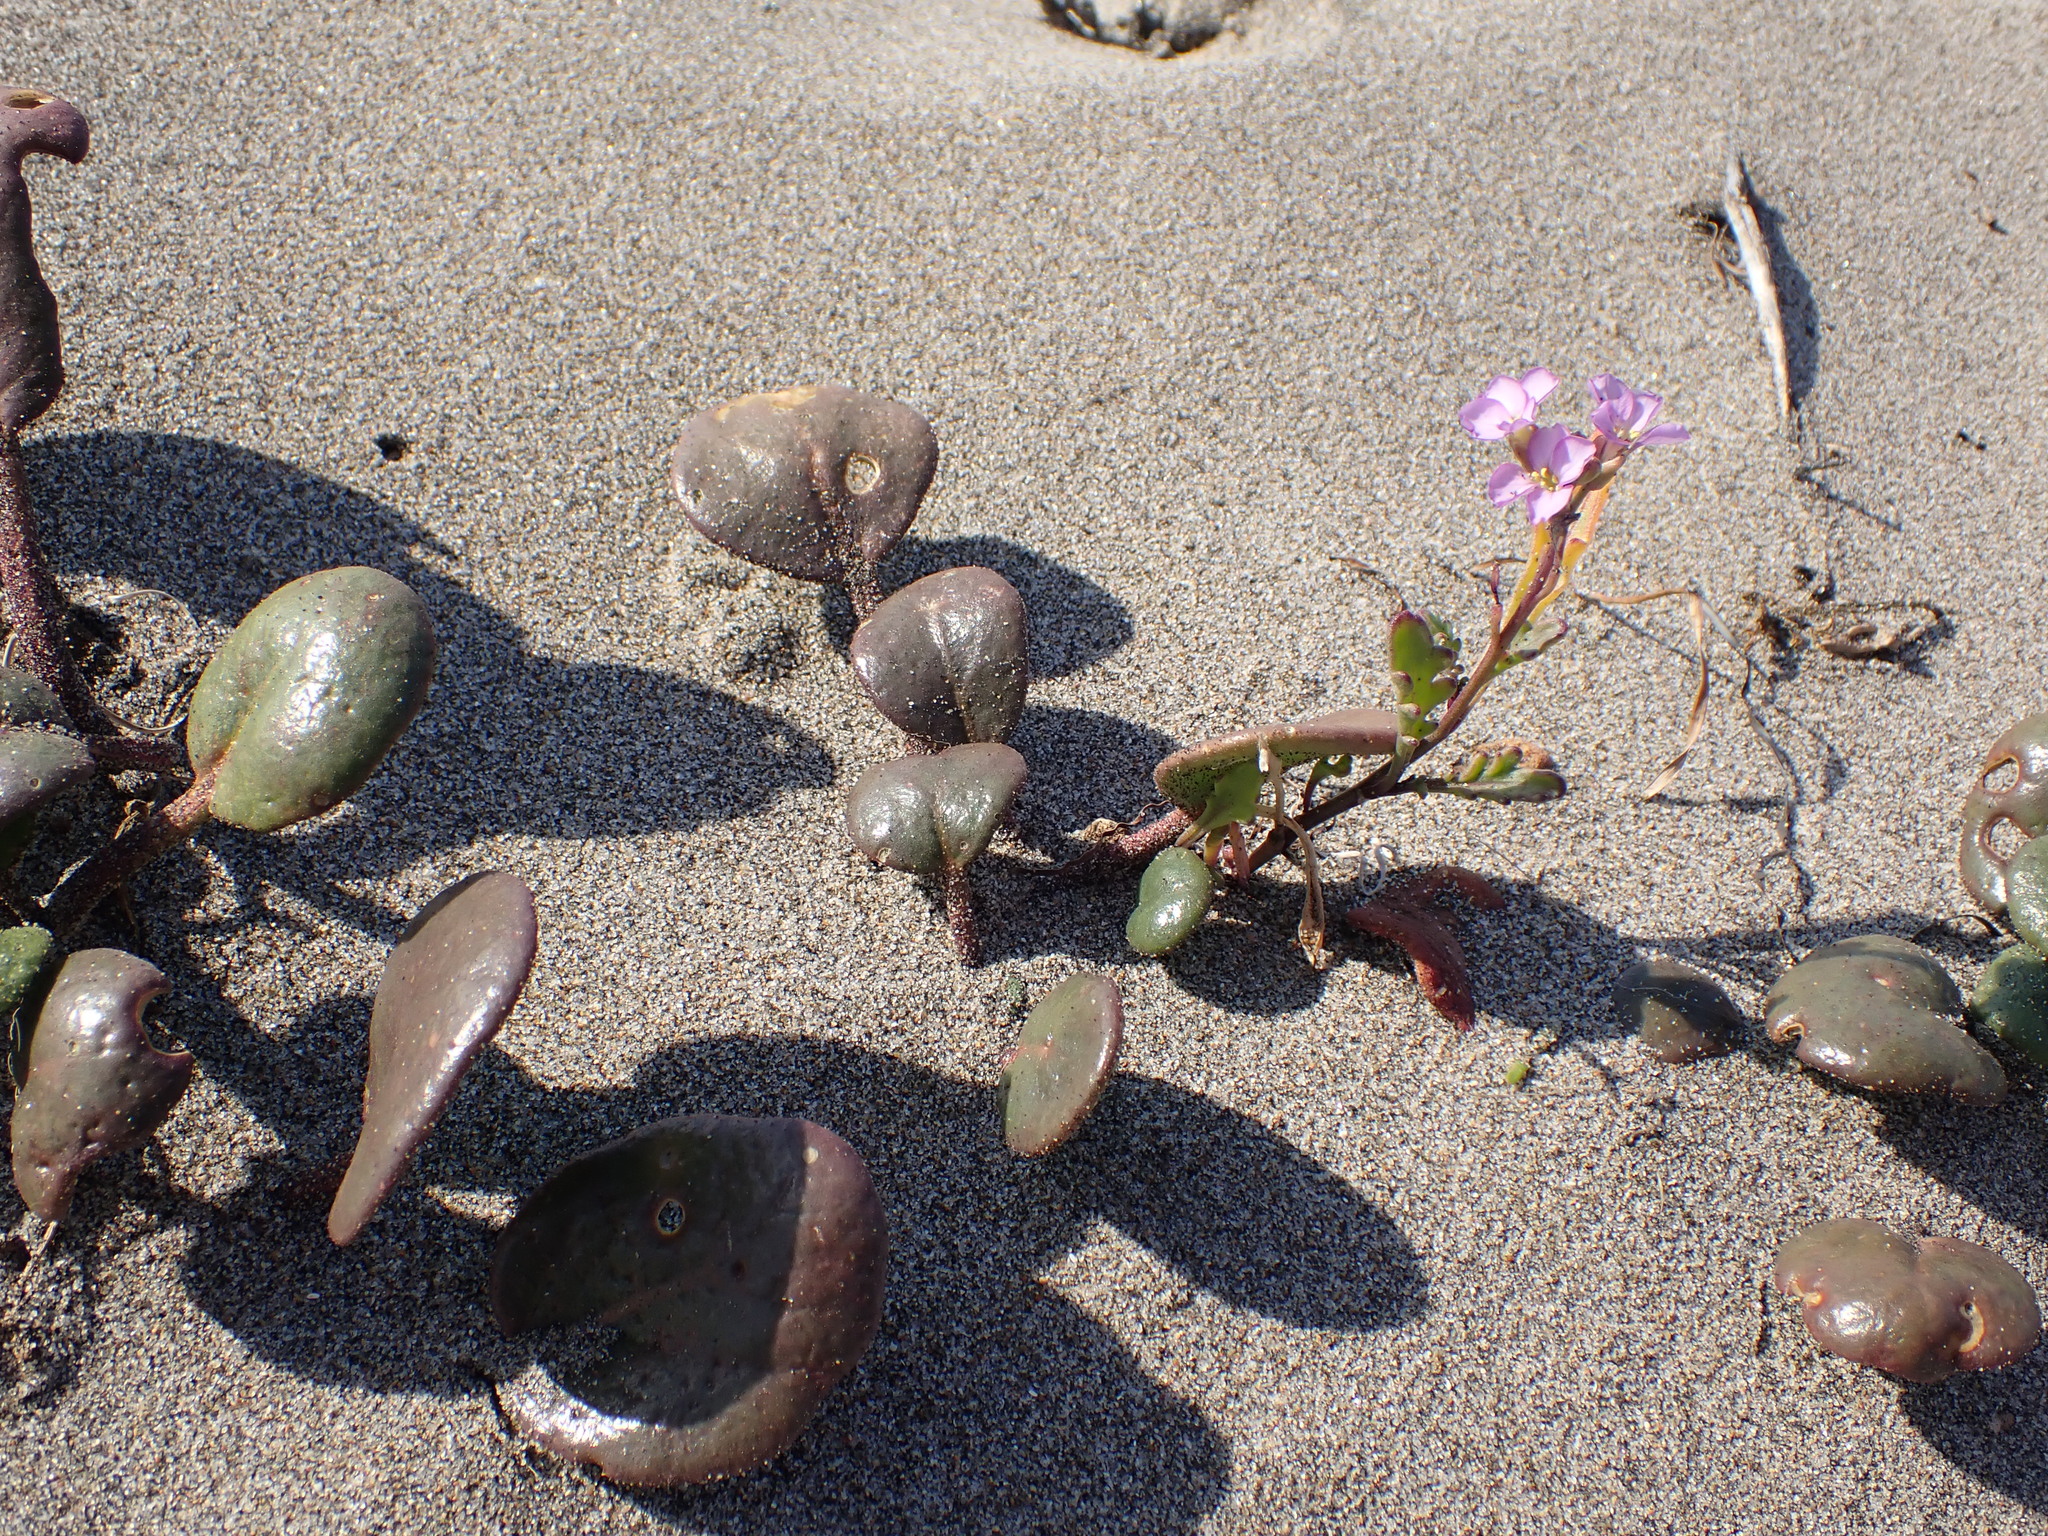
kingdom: Plantae
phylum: Tracheophyta
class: Magnoliopsida
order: Brassicales
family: Brassicaceae
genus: Cakile
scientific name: Cakile maritima
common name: Sea rocket
